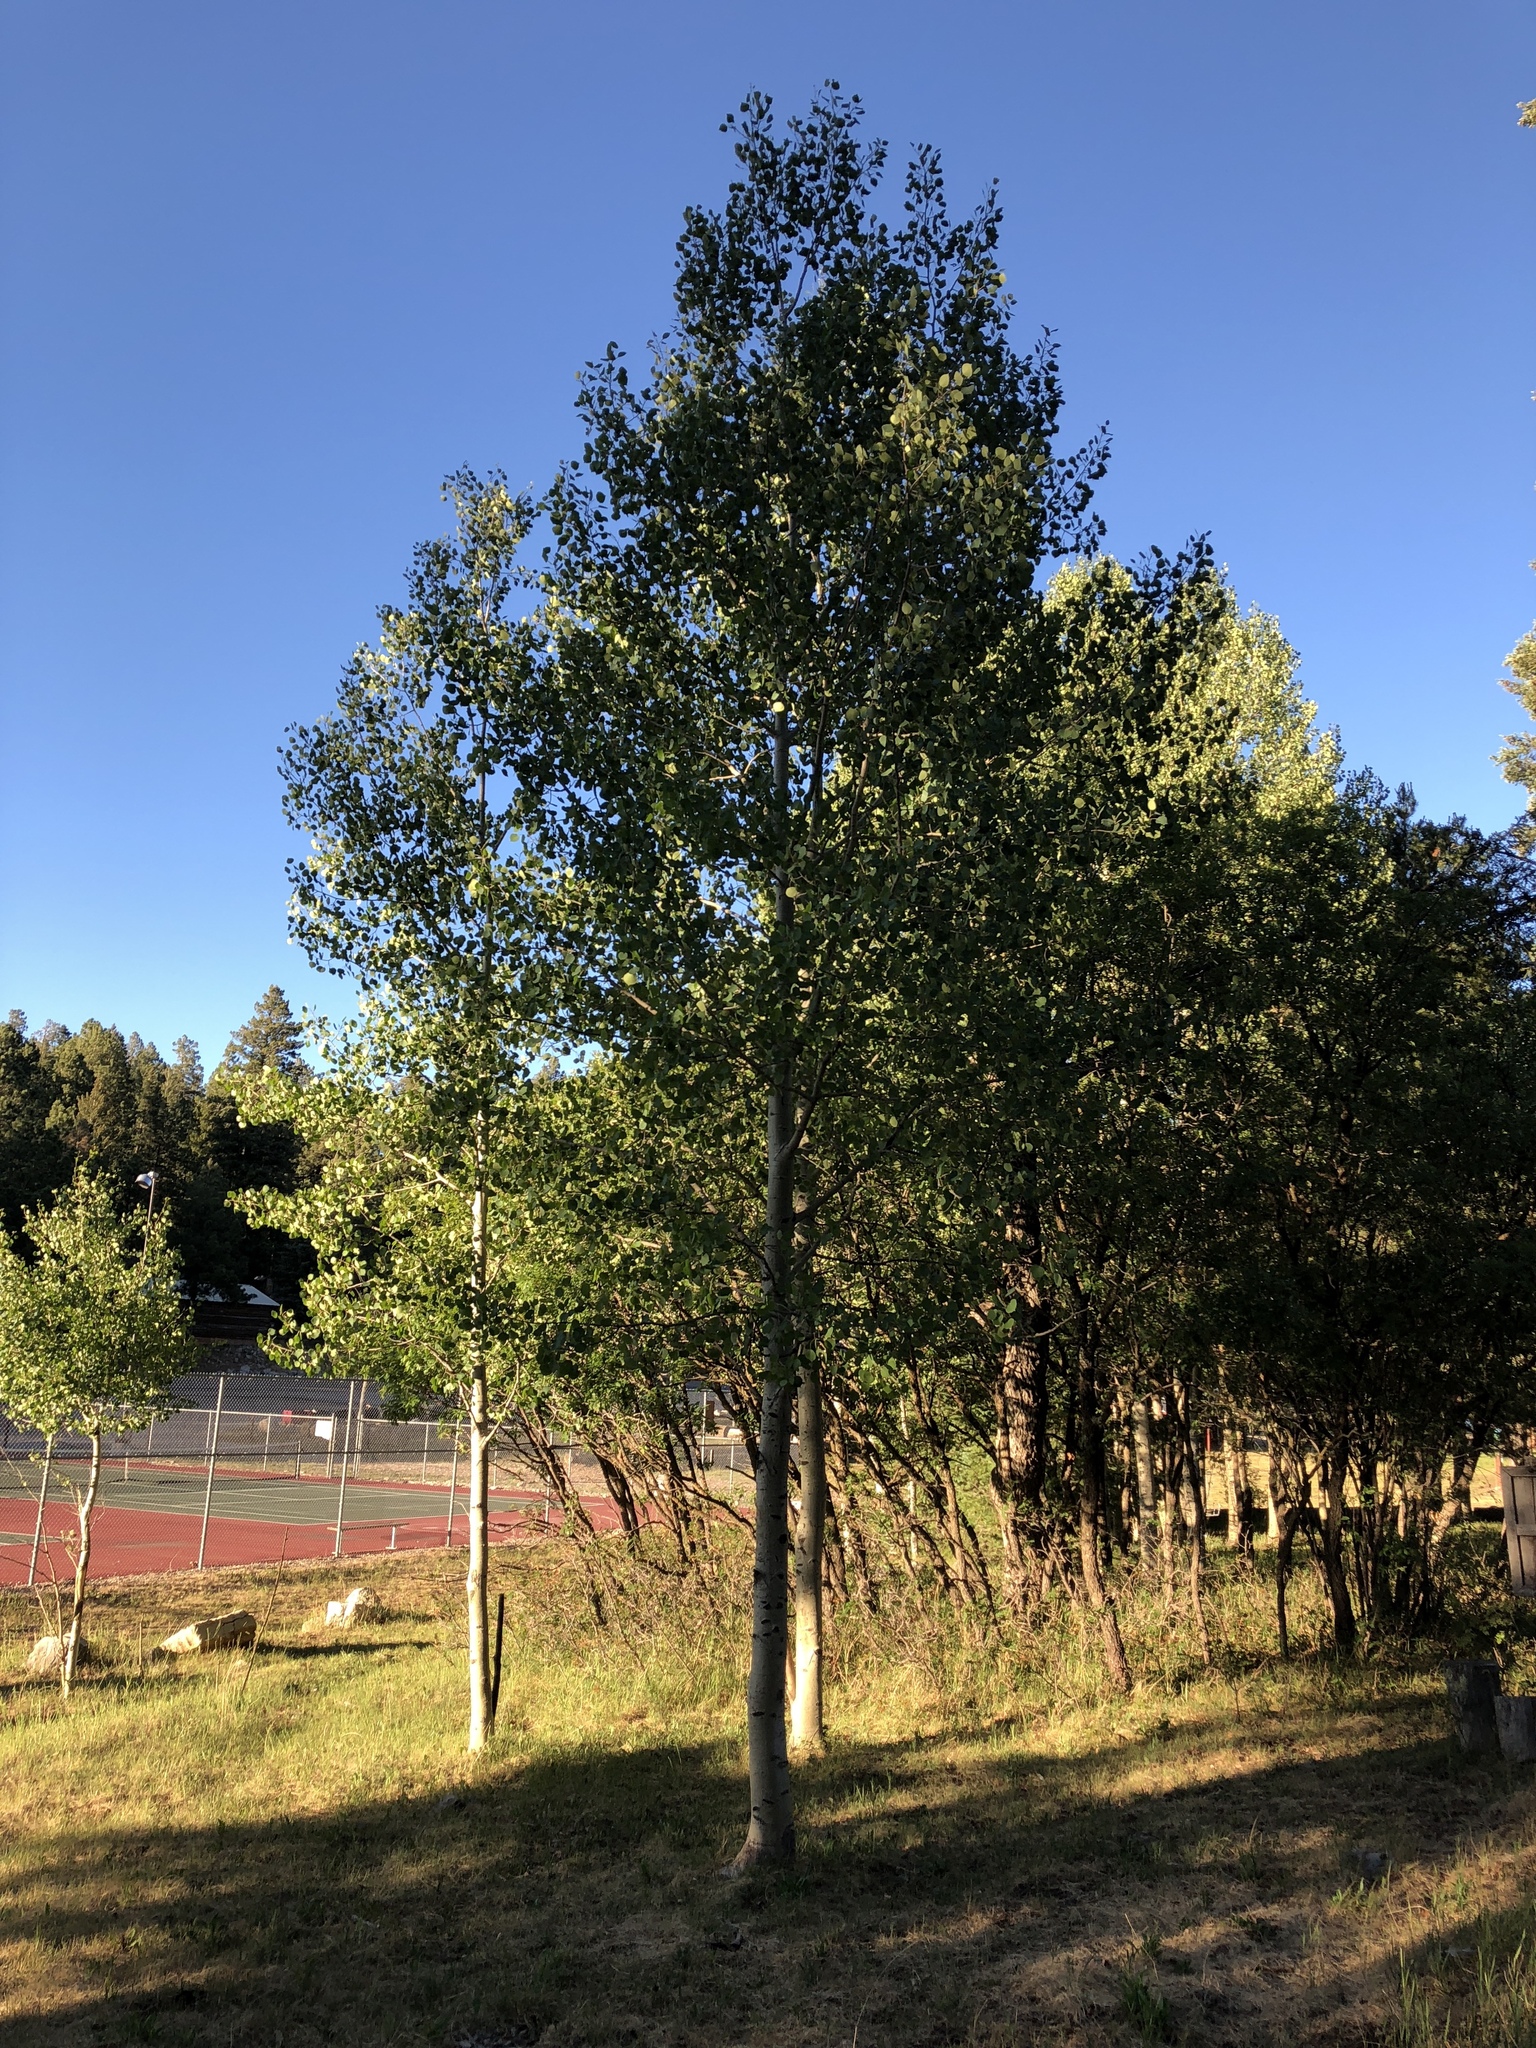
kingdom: Plantae
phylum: Tracheophyta
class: Magnoliopsida
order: Malpighiales
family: Salicaceae
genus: Populus
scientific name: Populus tremuloides
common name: Quaking aspen
